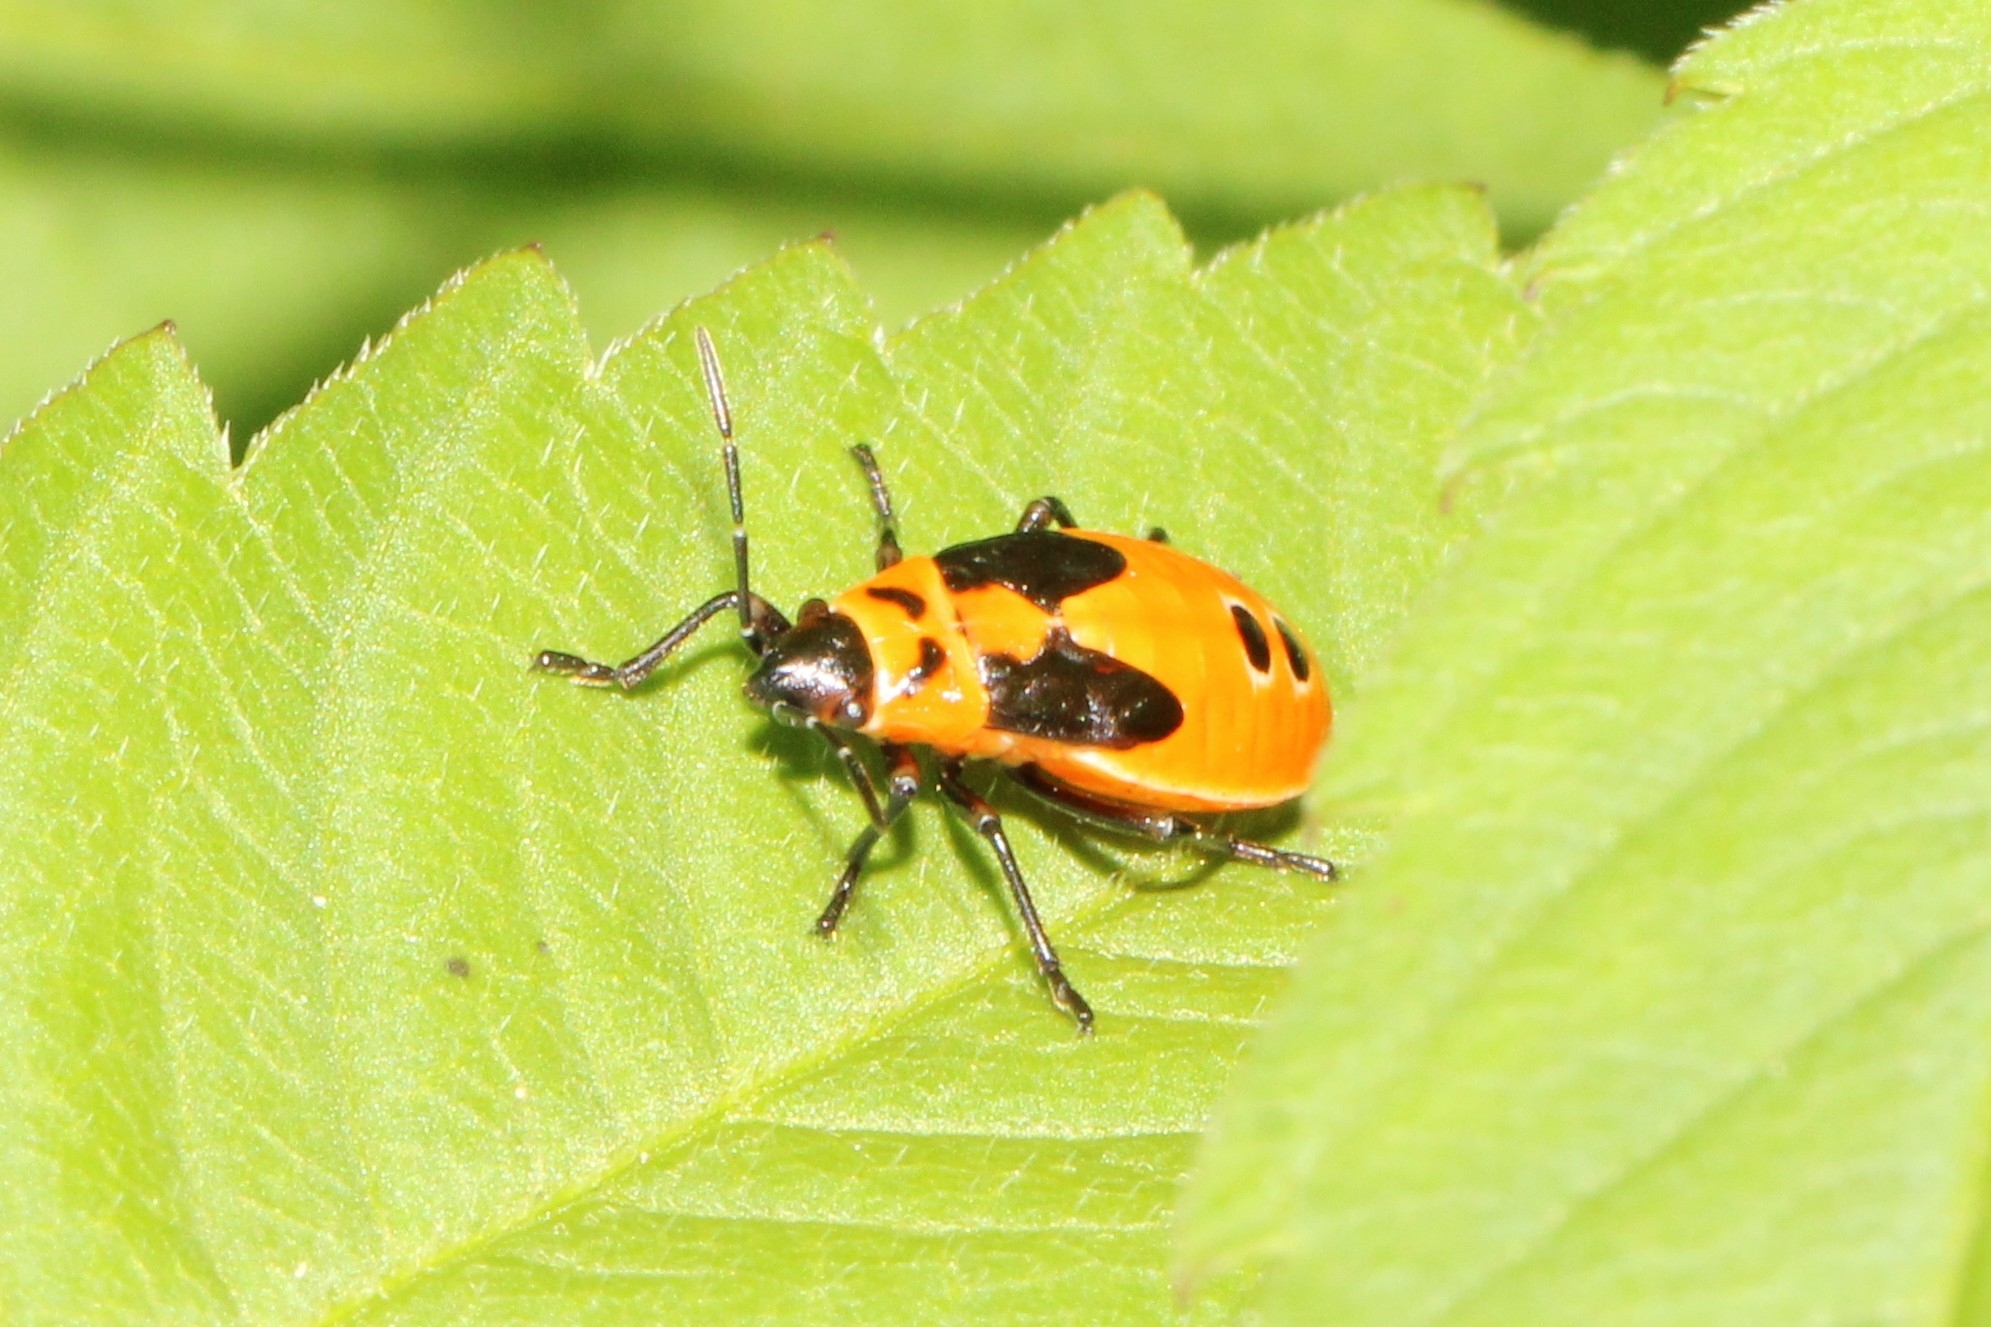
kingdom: Animalia
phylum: Arthropoda
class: Insecta
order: Hemiptera
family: Lygaeidae
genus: Lygaeus
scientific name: Lygaeus turcicus
